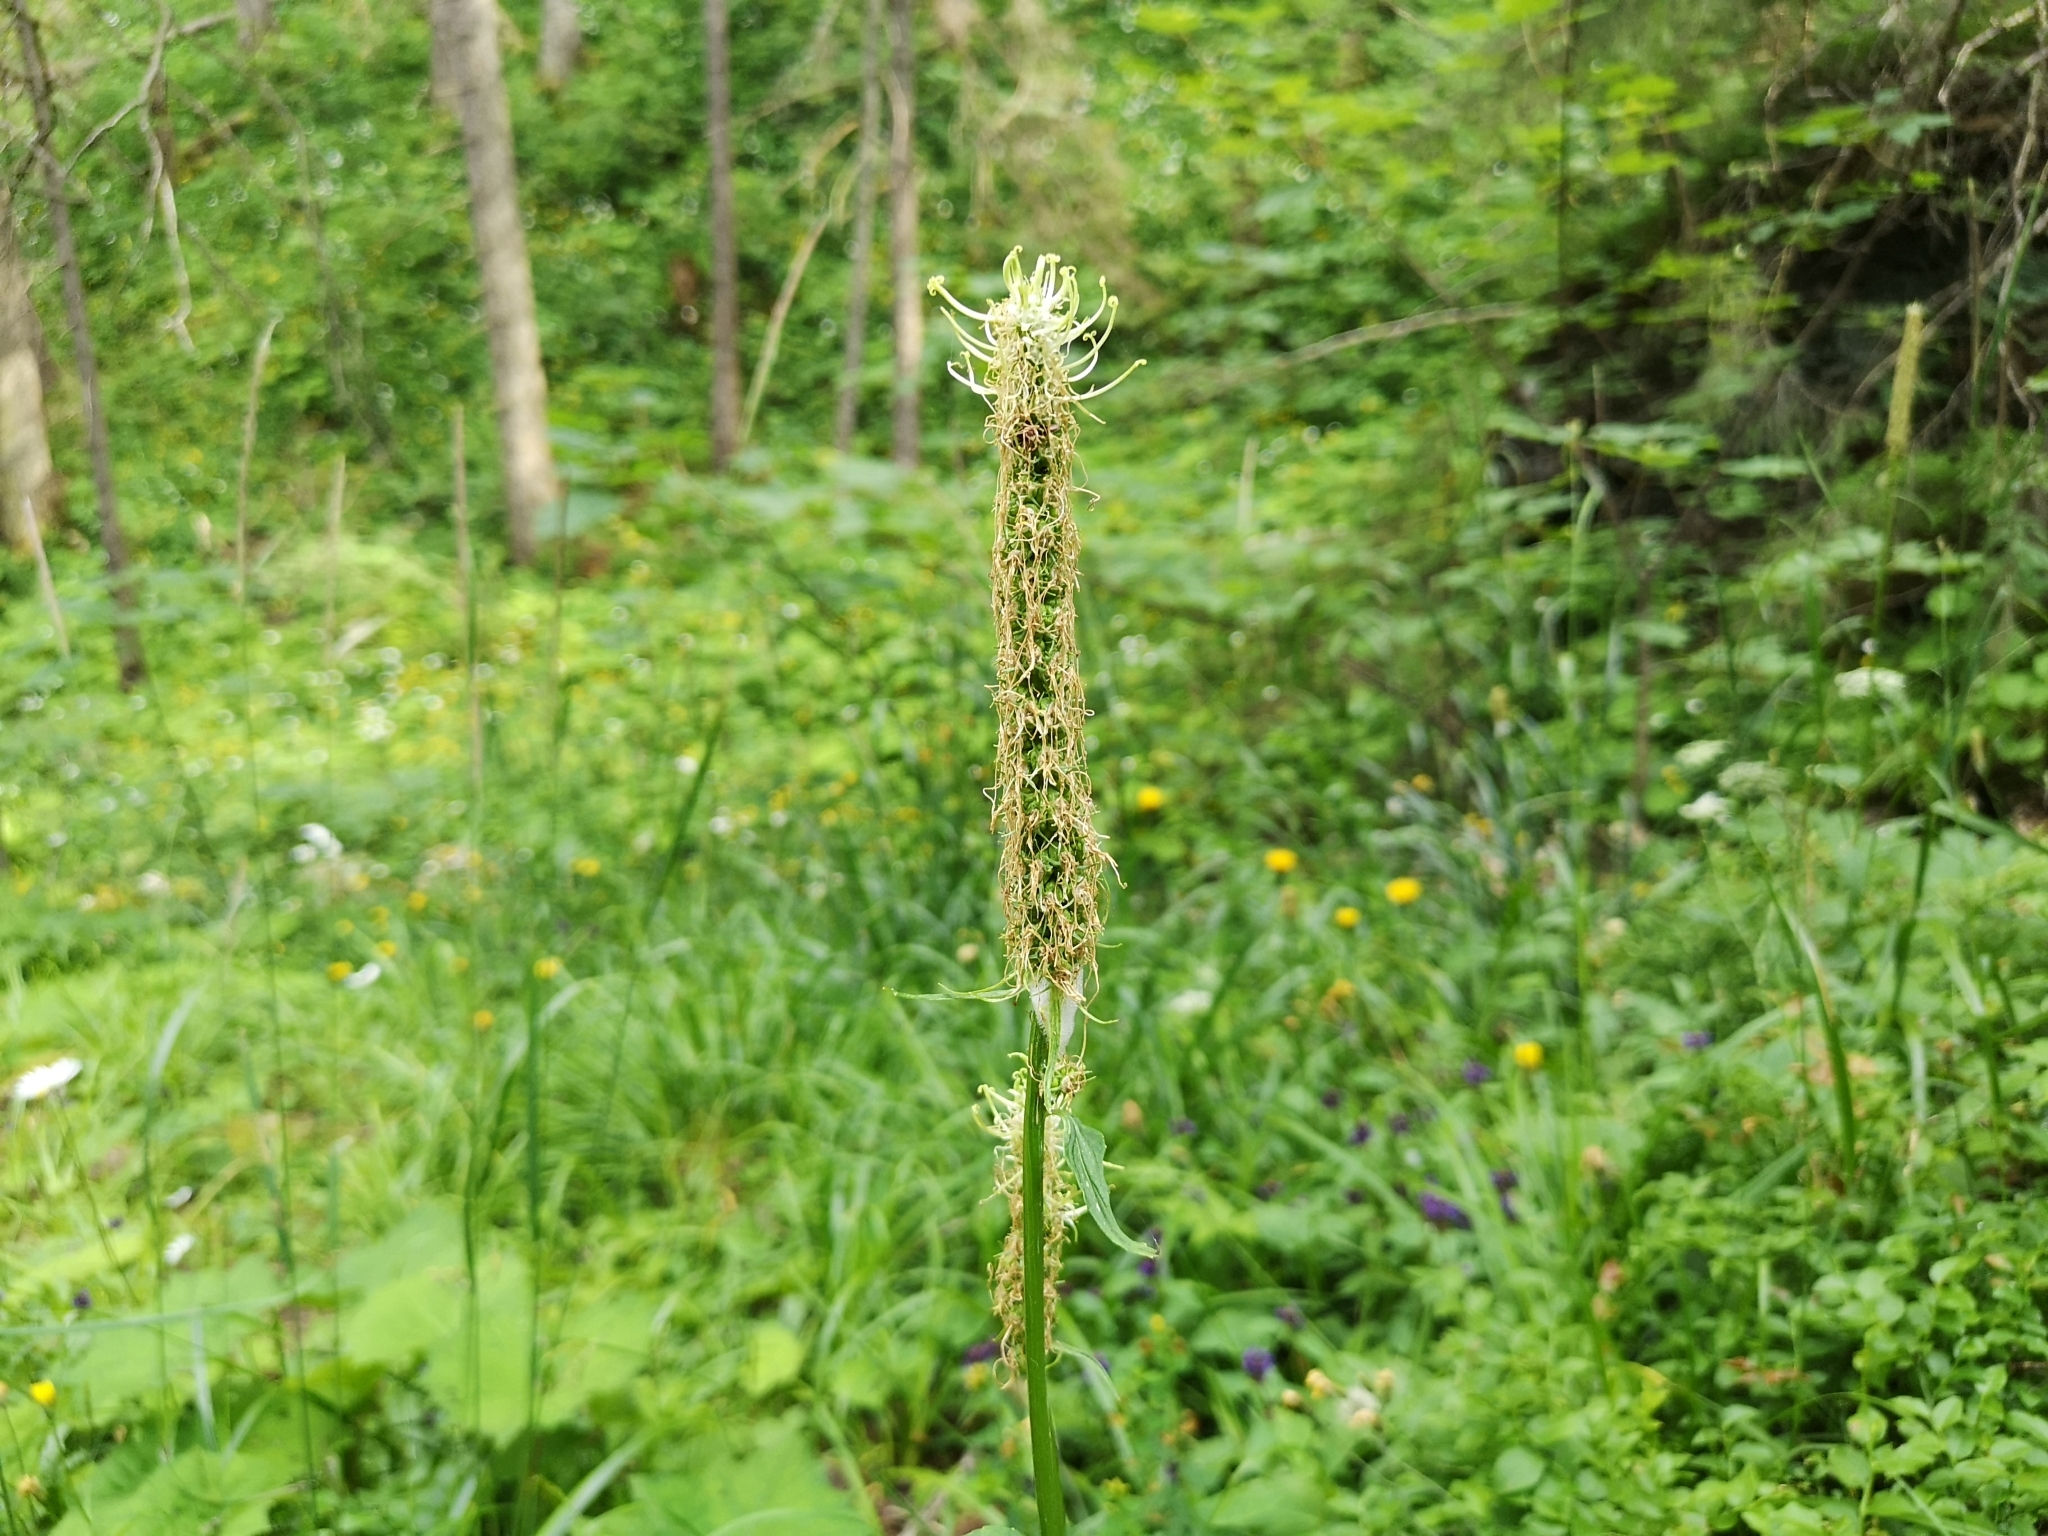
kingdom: Plantae
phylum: Tracheophyta
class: Magnoliopsida
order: Asterales
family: Campanulaceae
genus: Phyteuma
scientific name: Phyteuma spicatum
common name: Spiked rampion
